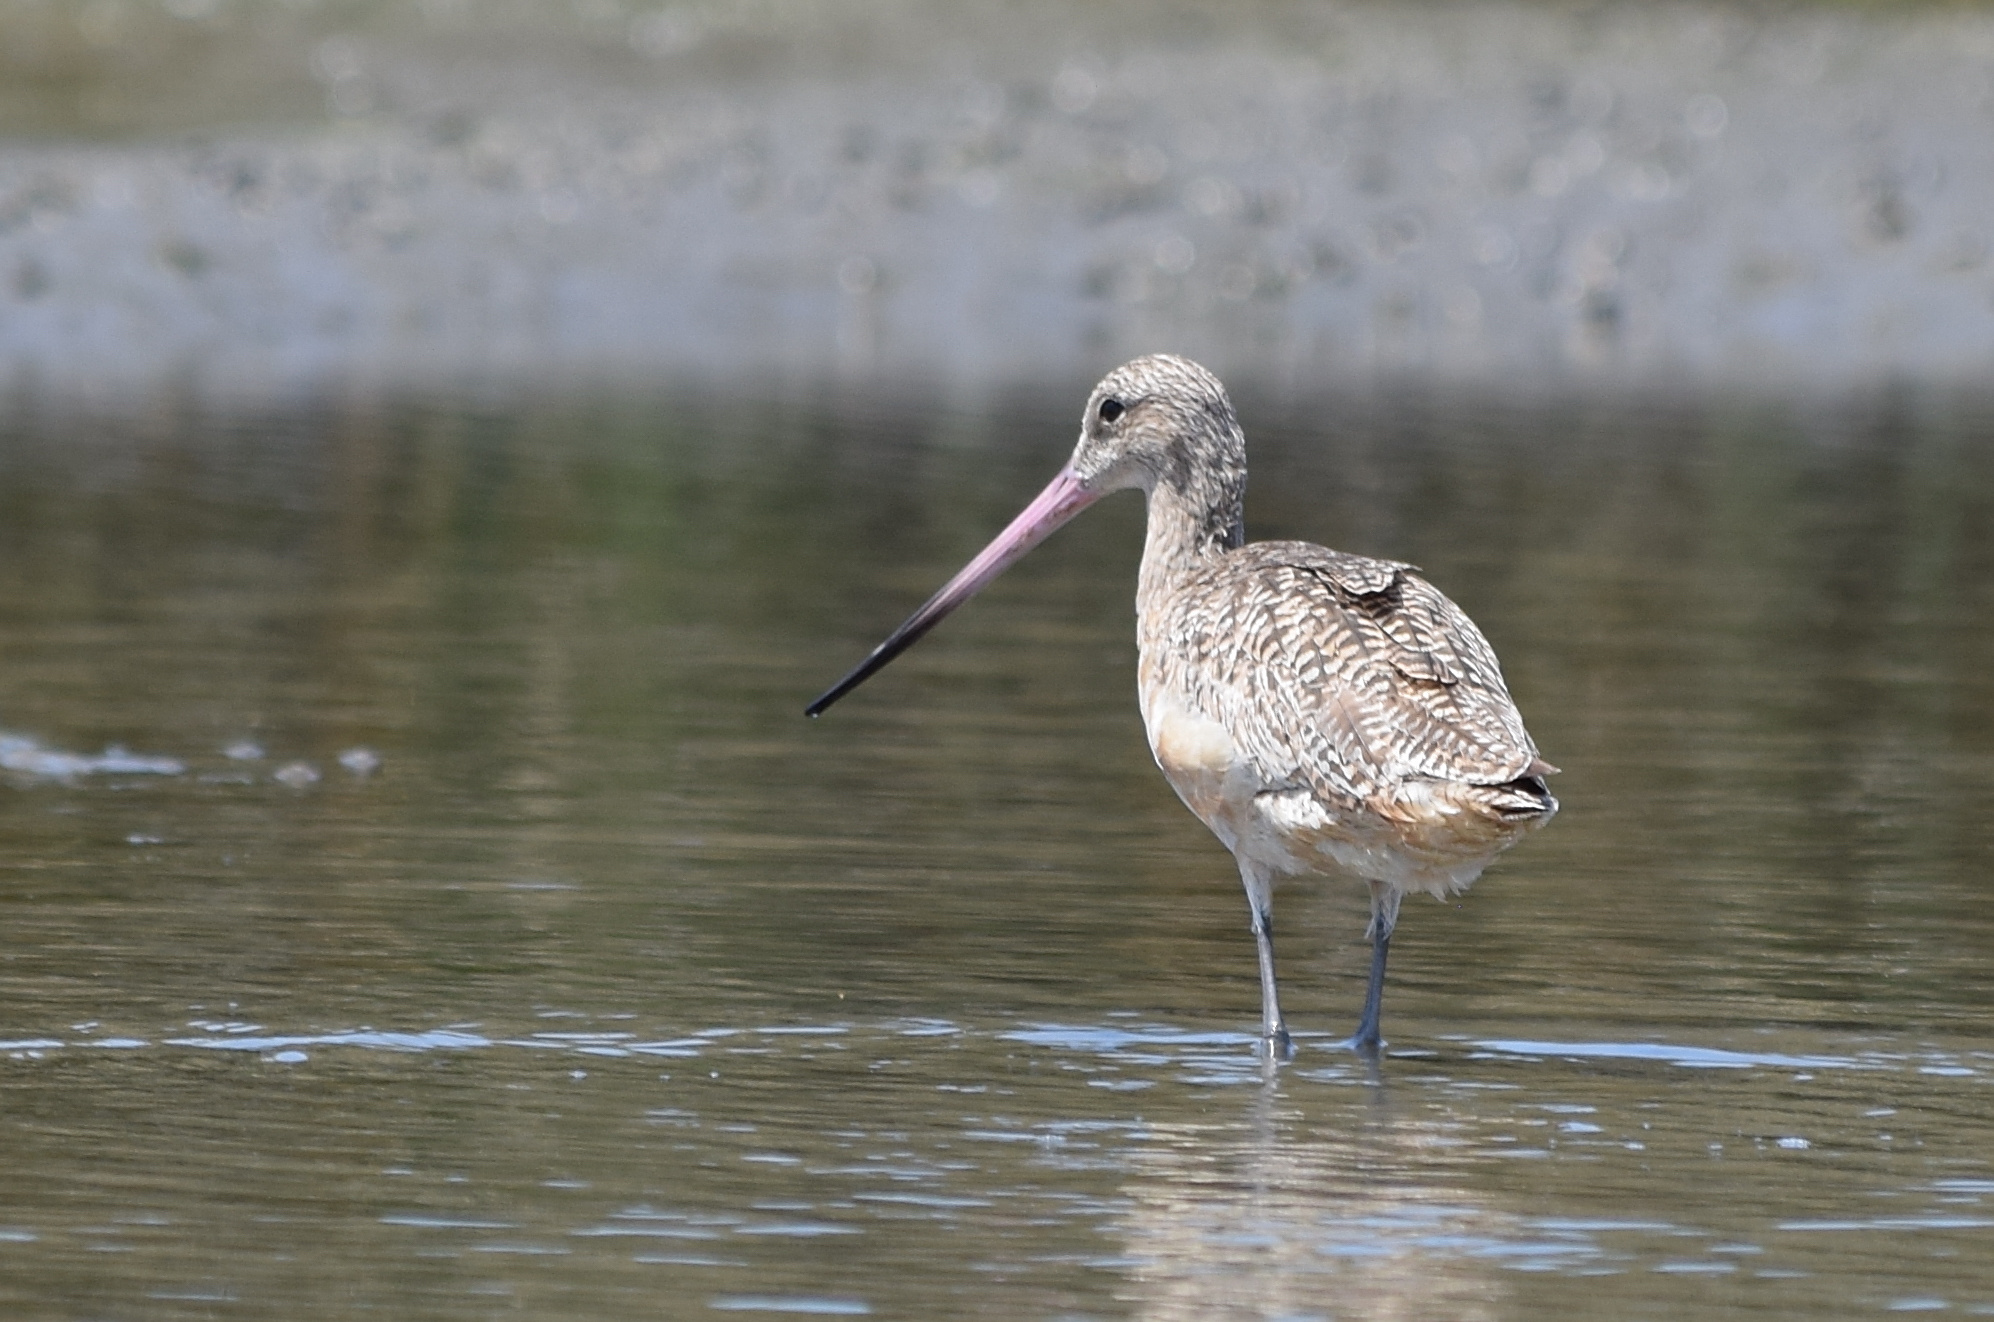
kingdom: Animalia
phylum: Chordata
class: Aves
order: Charadriiformes
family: Scolopacidae
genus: Limosa
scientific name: Limosa fedoa
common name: Marbled godwit
